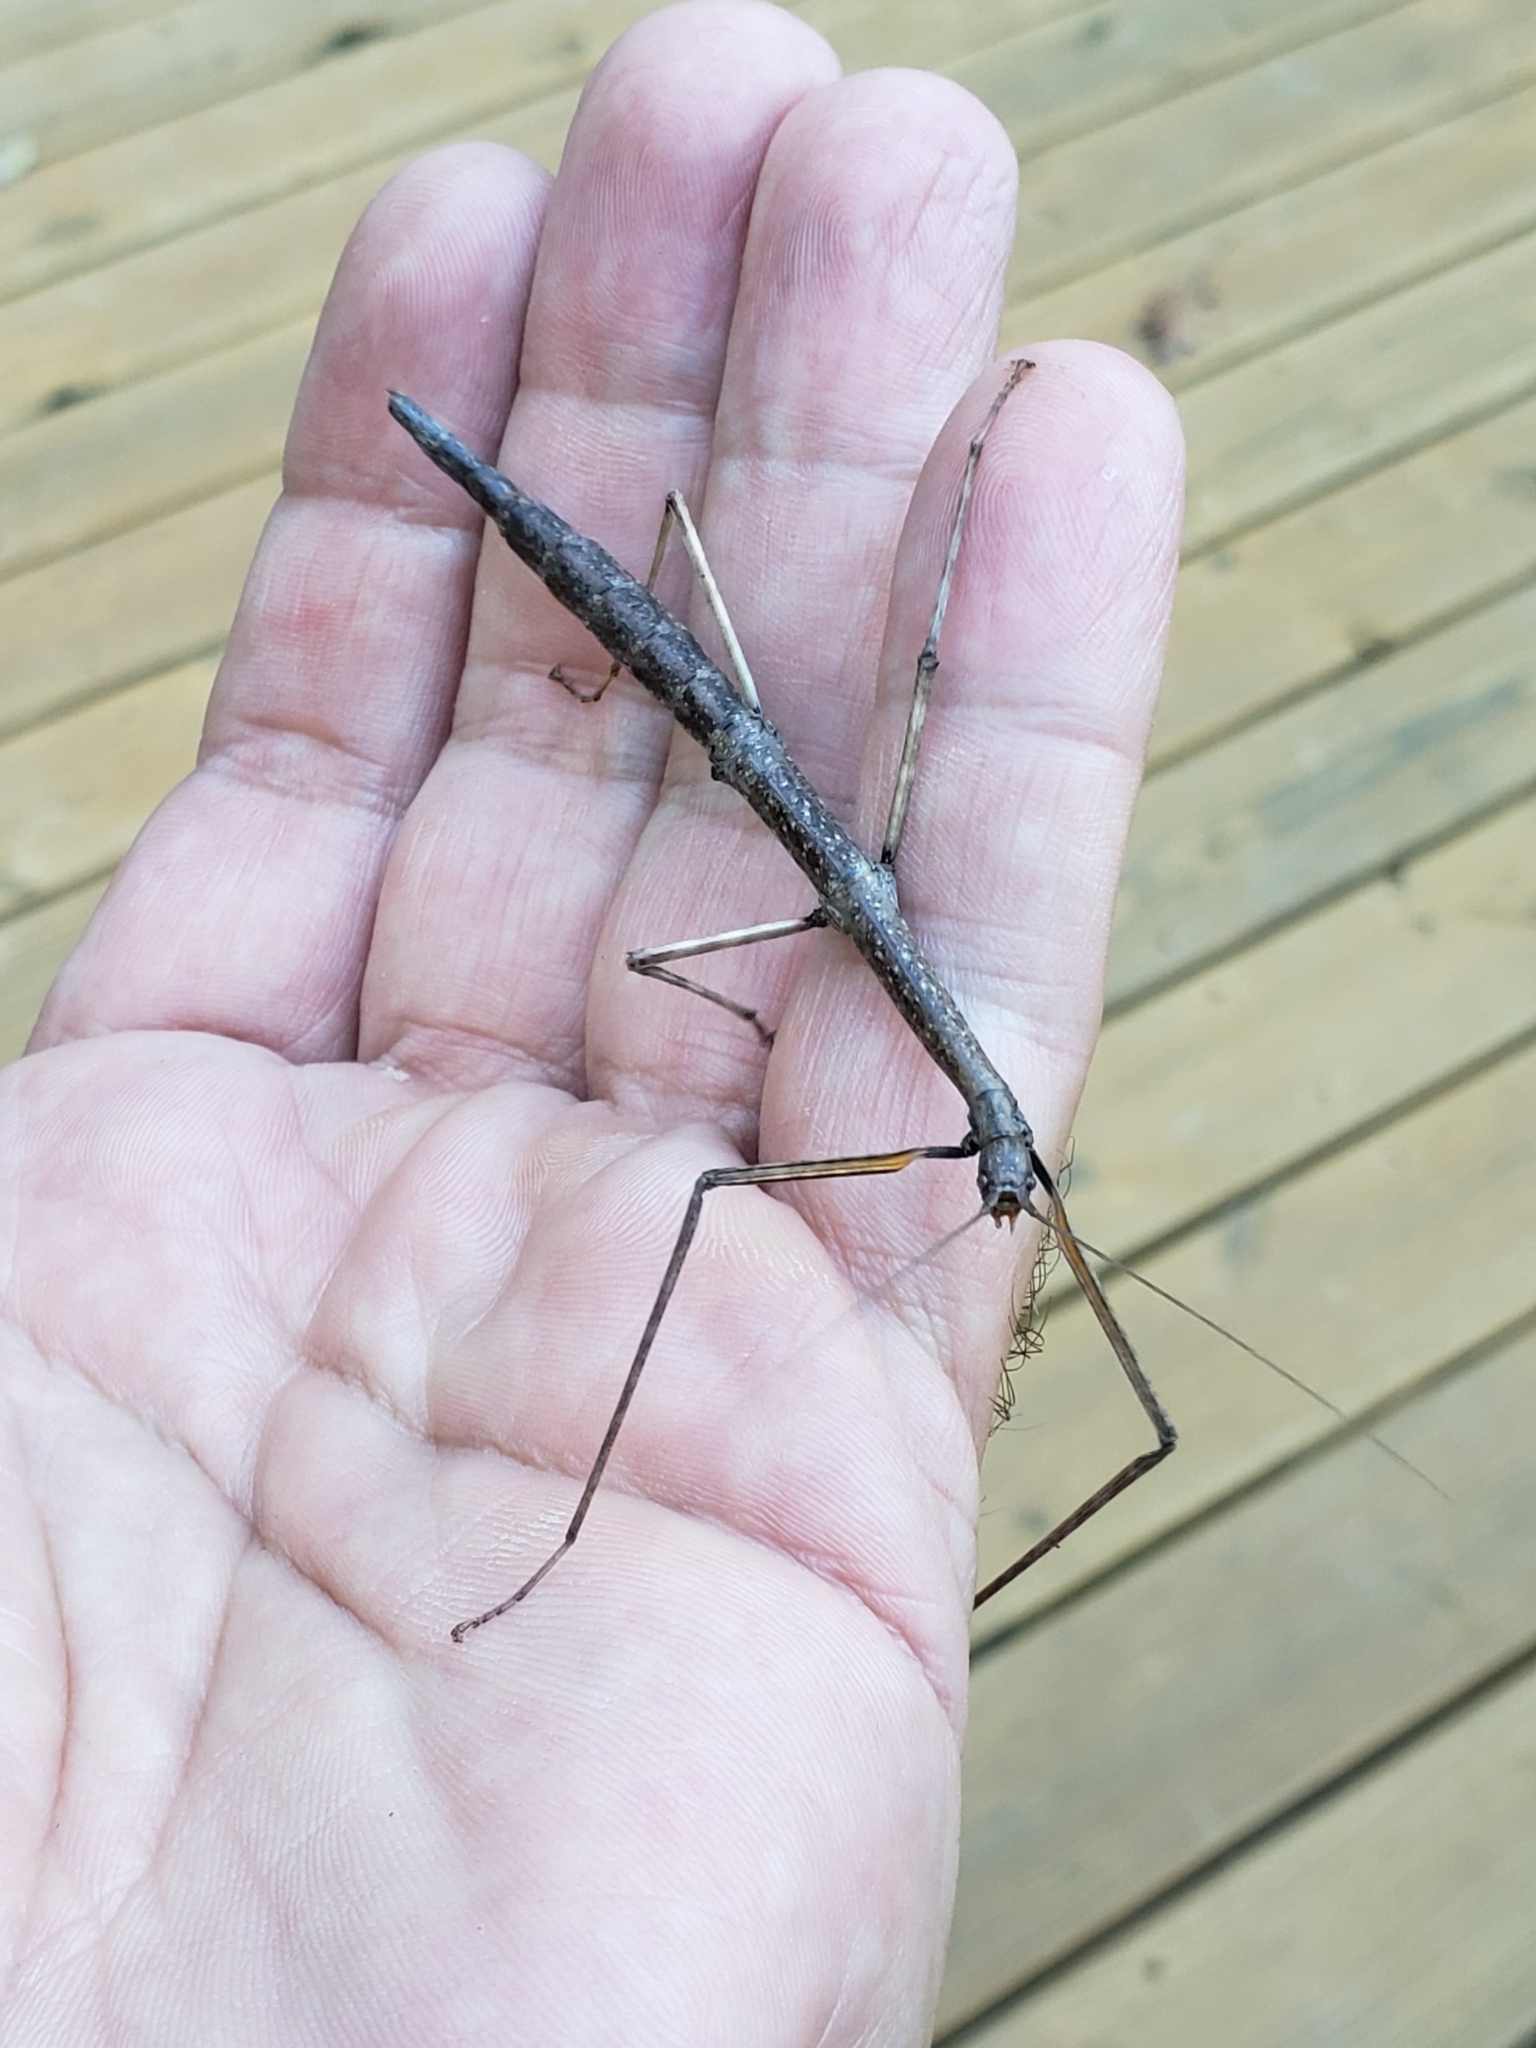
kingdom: Animalia
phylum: Arthropoda
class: Insecta
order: Phasmida
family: Diapheromeridae
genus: Diapheromera
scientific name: Diapheromera femorata
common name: Common american walkingstick
